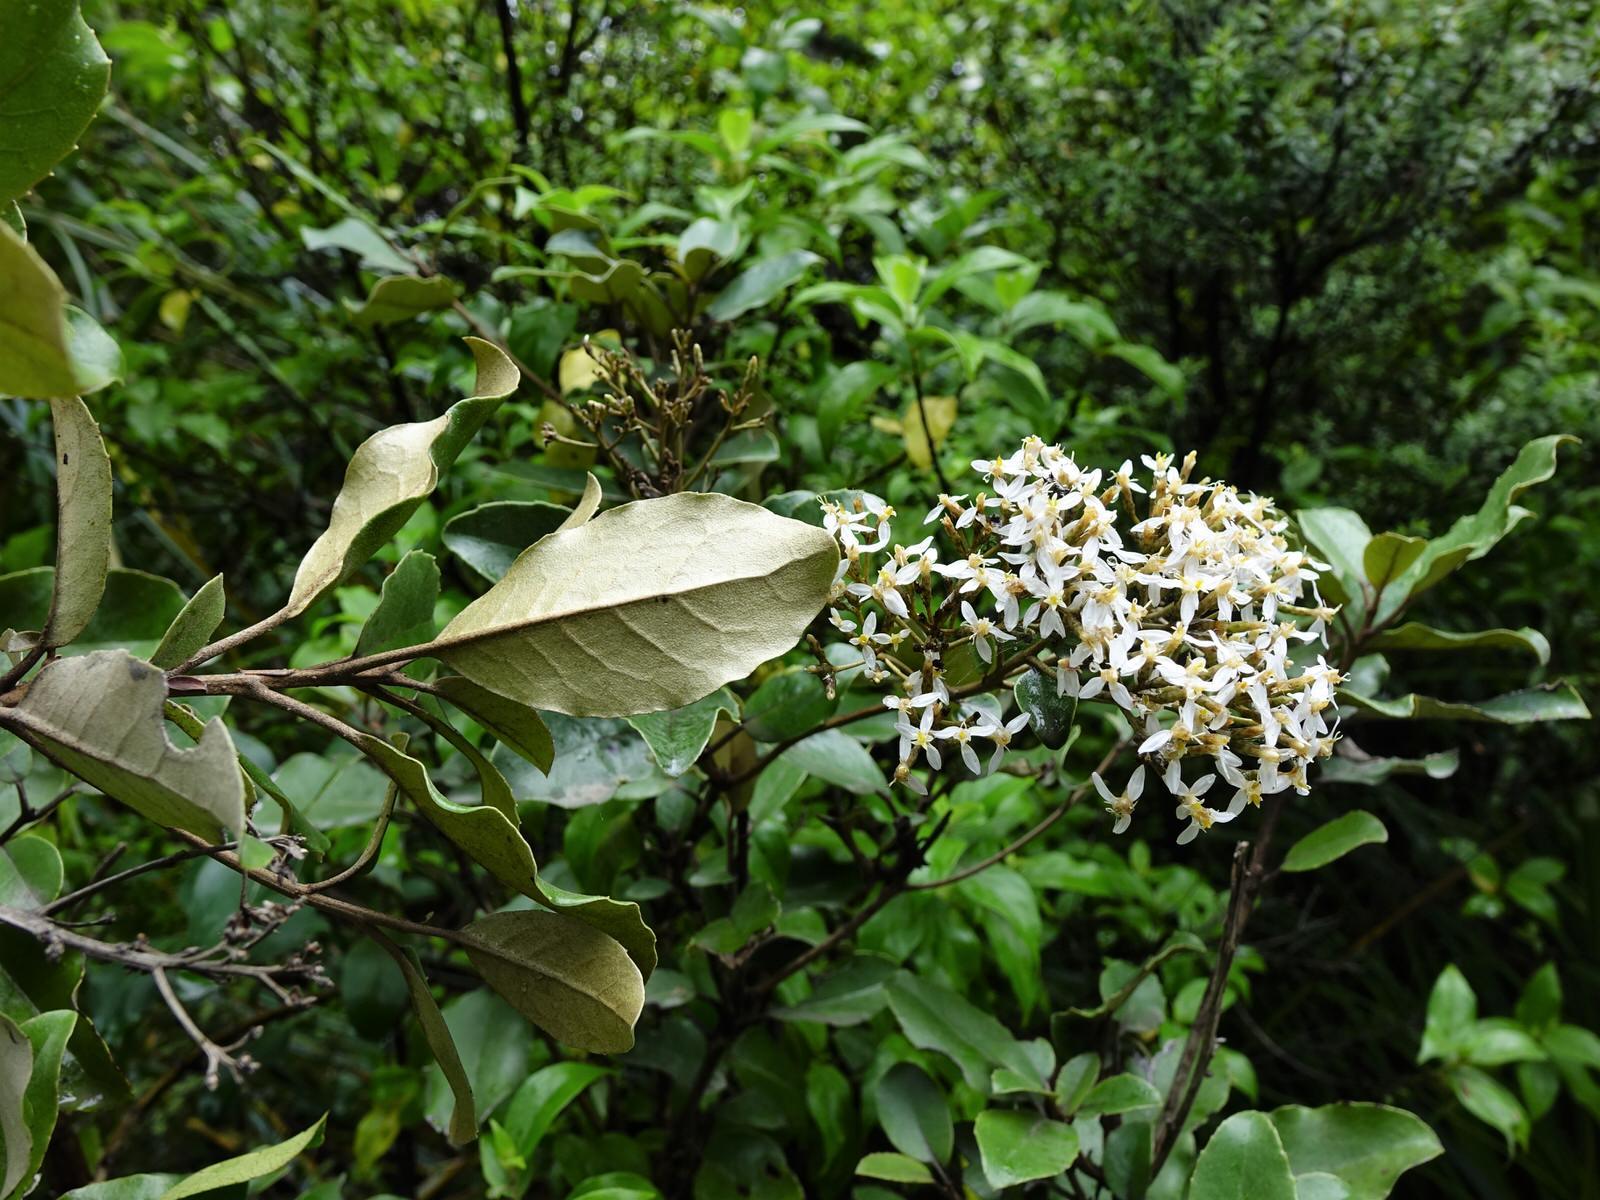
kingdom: Plantae
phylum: Tracheophyta
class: Magnoliopsida
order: Asterales
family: Asteraceae
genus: Olearia
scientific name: Olearia furfuracea
